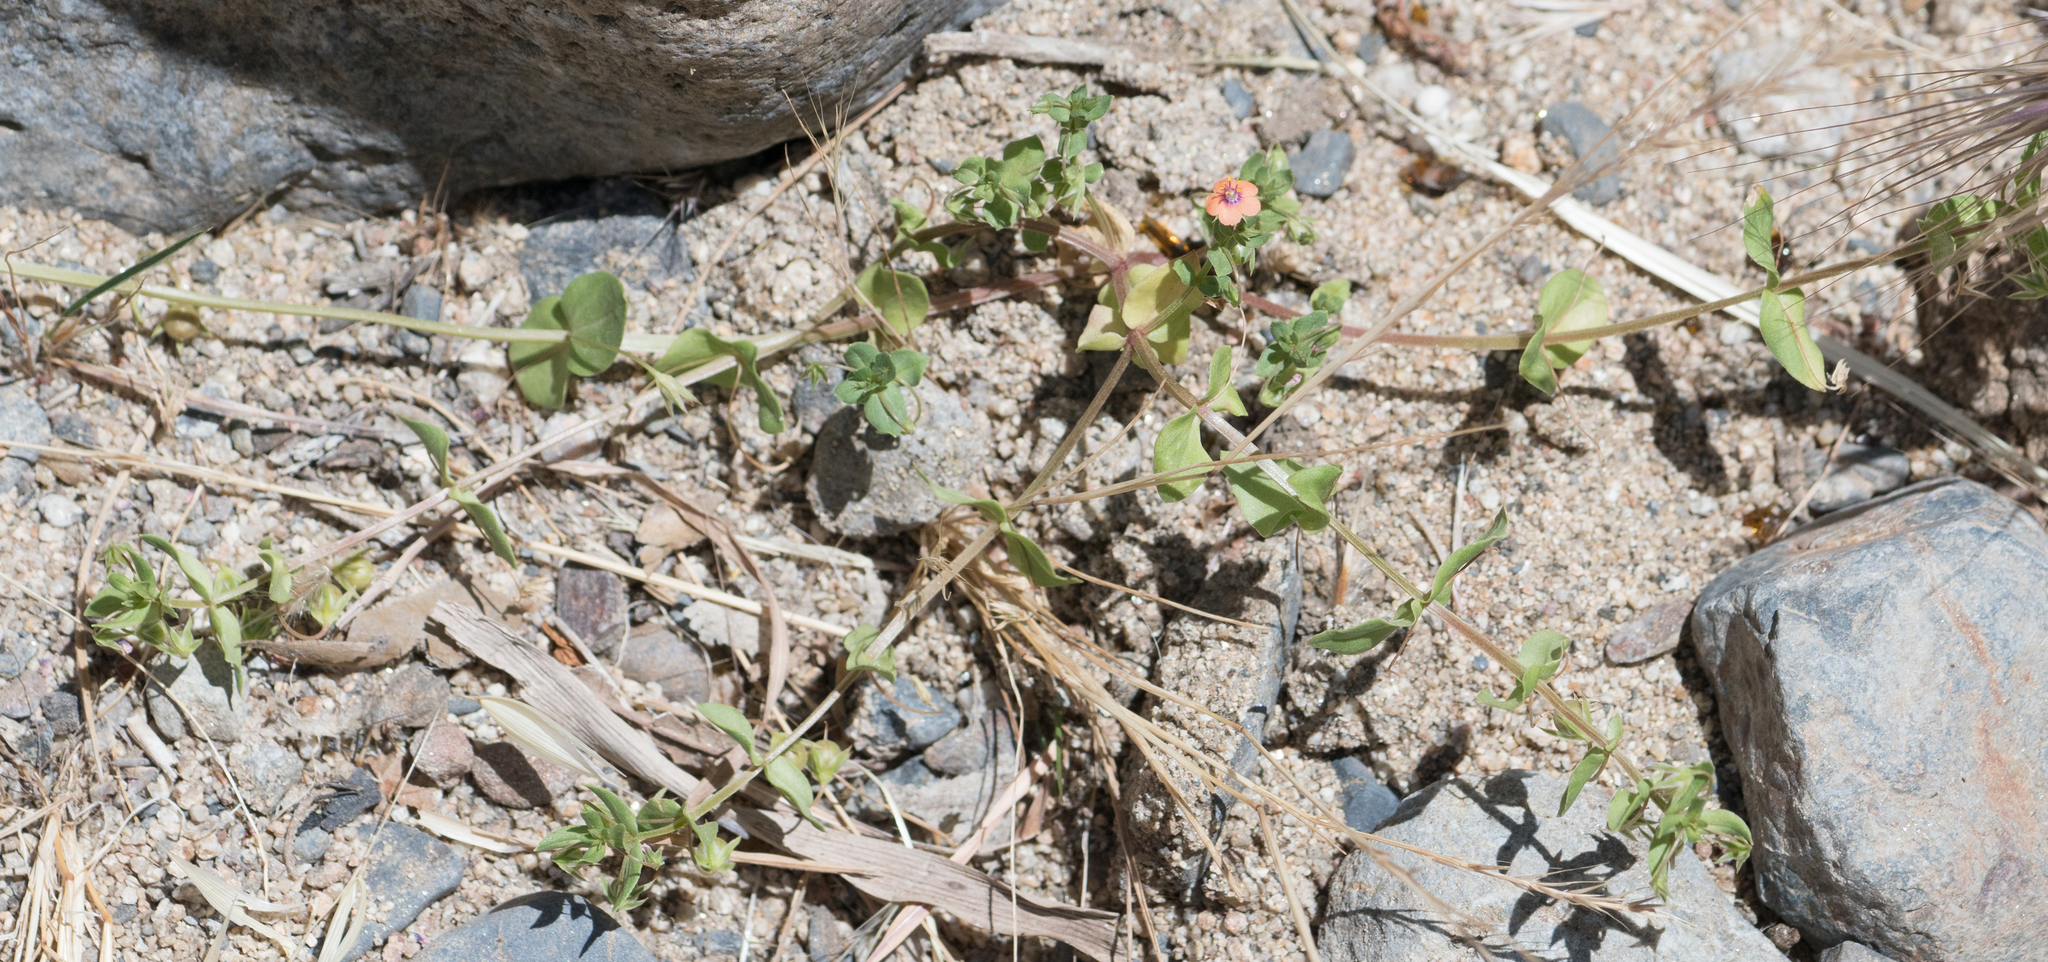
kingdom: Plantae
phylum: Tracheophyta
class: Magnoliopsida
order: Ericales
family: Primulaceae
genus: Lysimachia
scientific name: Lysimachia arvensis
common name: Scarlet pimpernel
